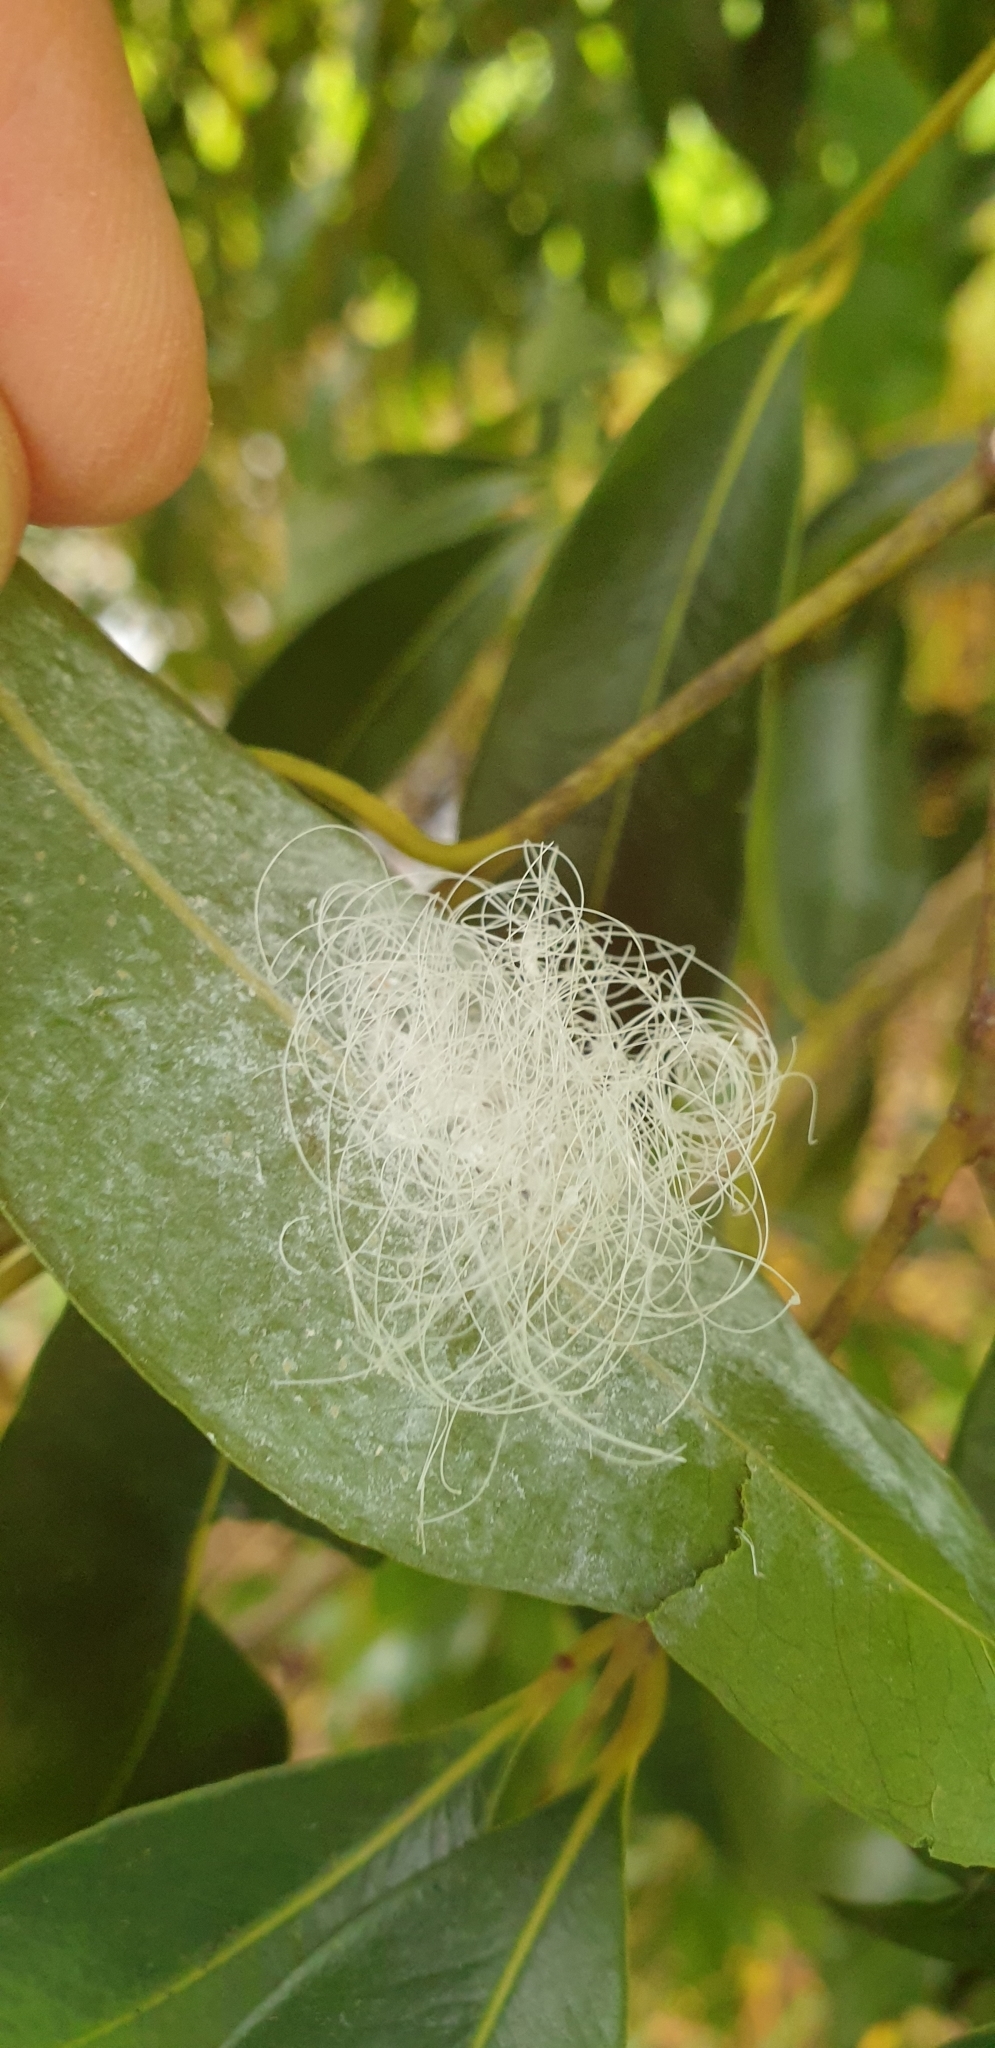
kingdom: Animalia
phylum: Arthropoda
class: Insecta
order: Hemiptera
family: Aleyrodidae
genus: Aleuroctarthrus
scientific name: Aleuroctarthrus
